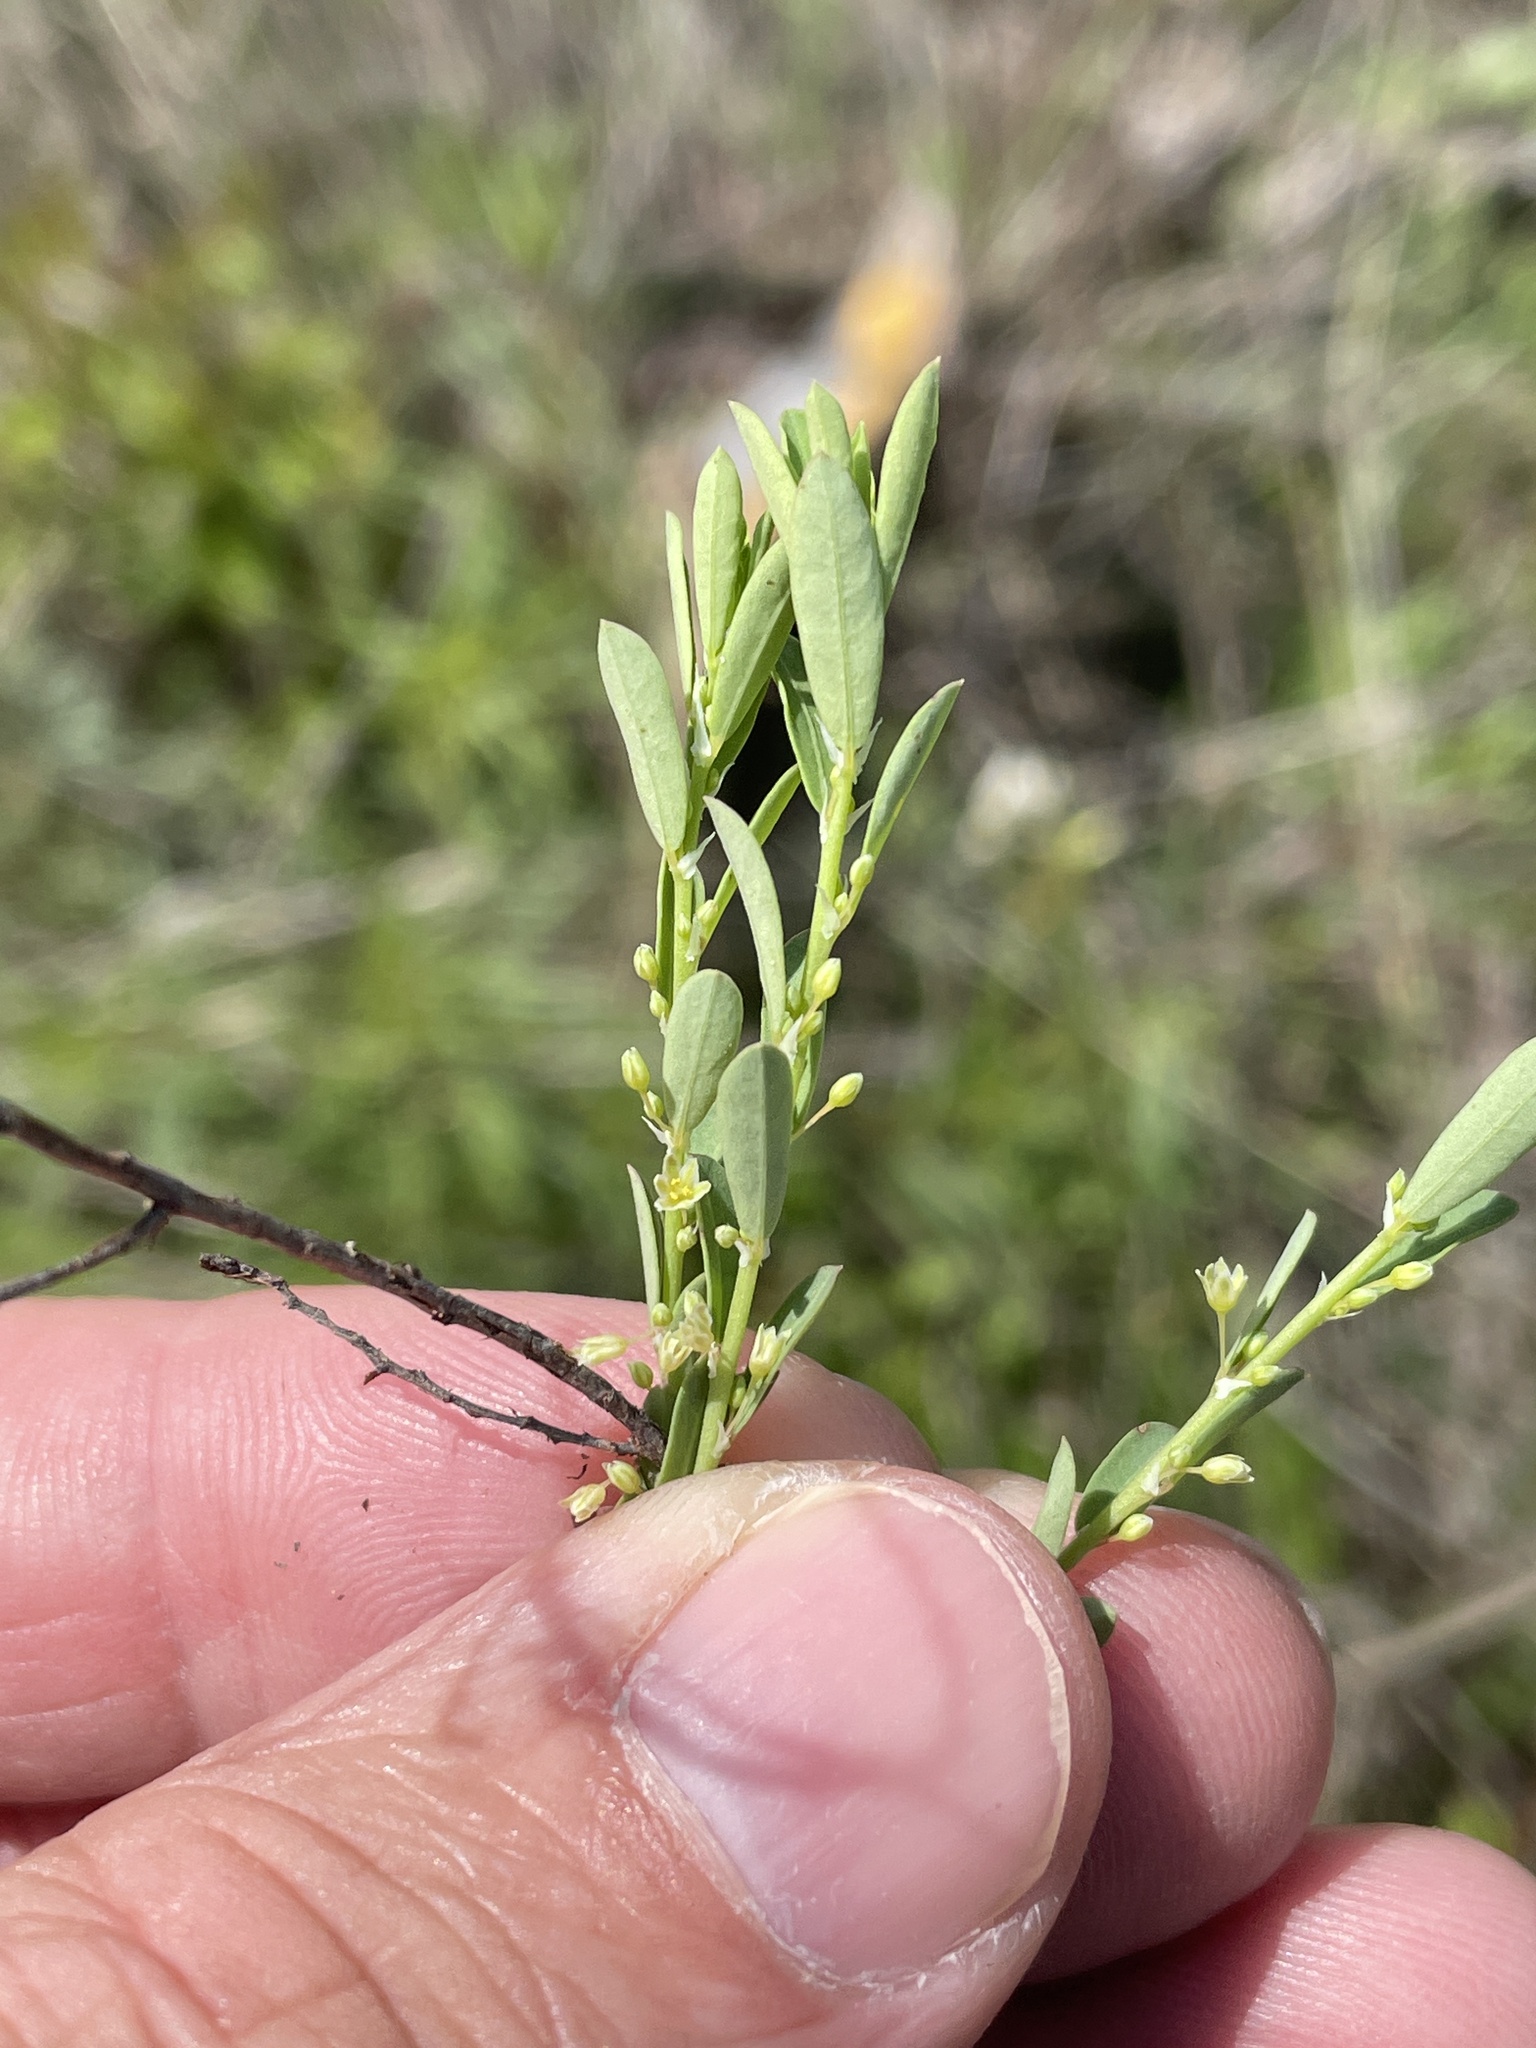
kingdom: Plantae
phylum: Tracheophyta
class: Magnoliopsida
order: Malpighiales
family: Phyllanthaceae
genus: Phyllanthus
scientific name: Phyllanthus polygonoides
